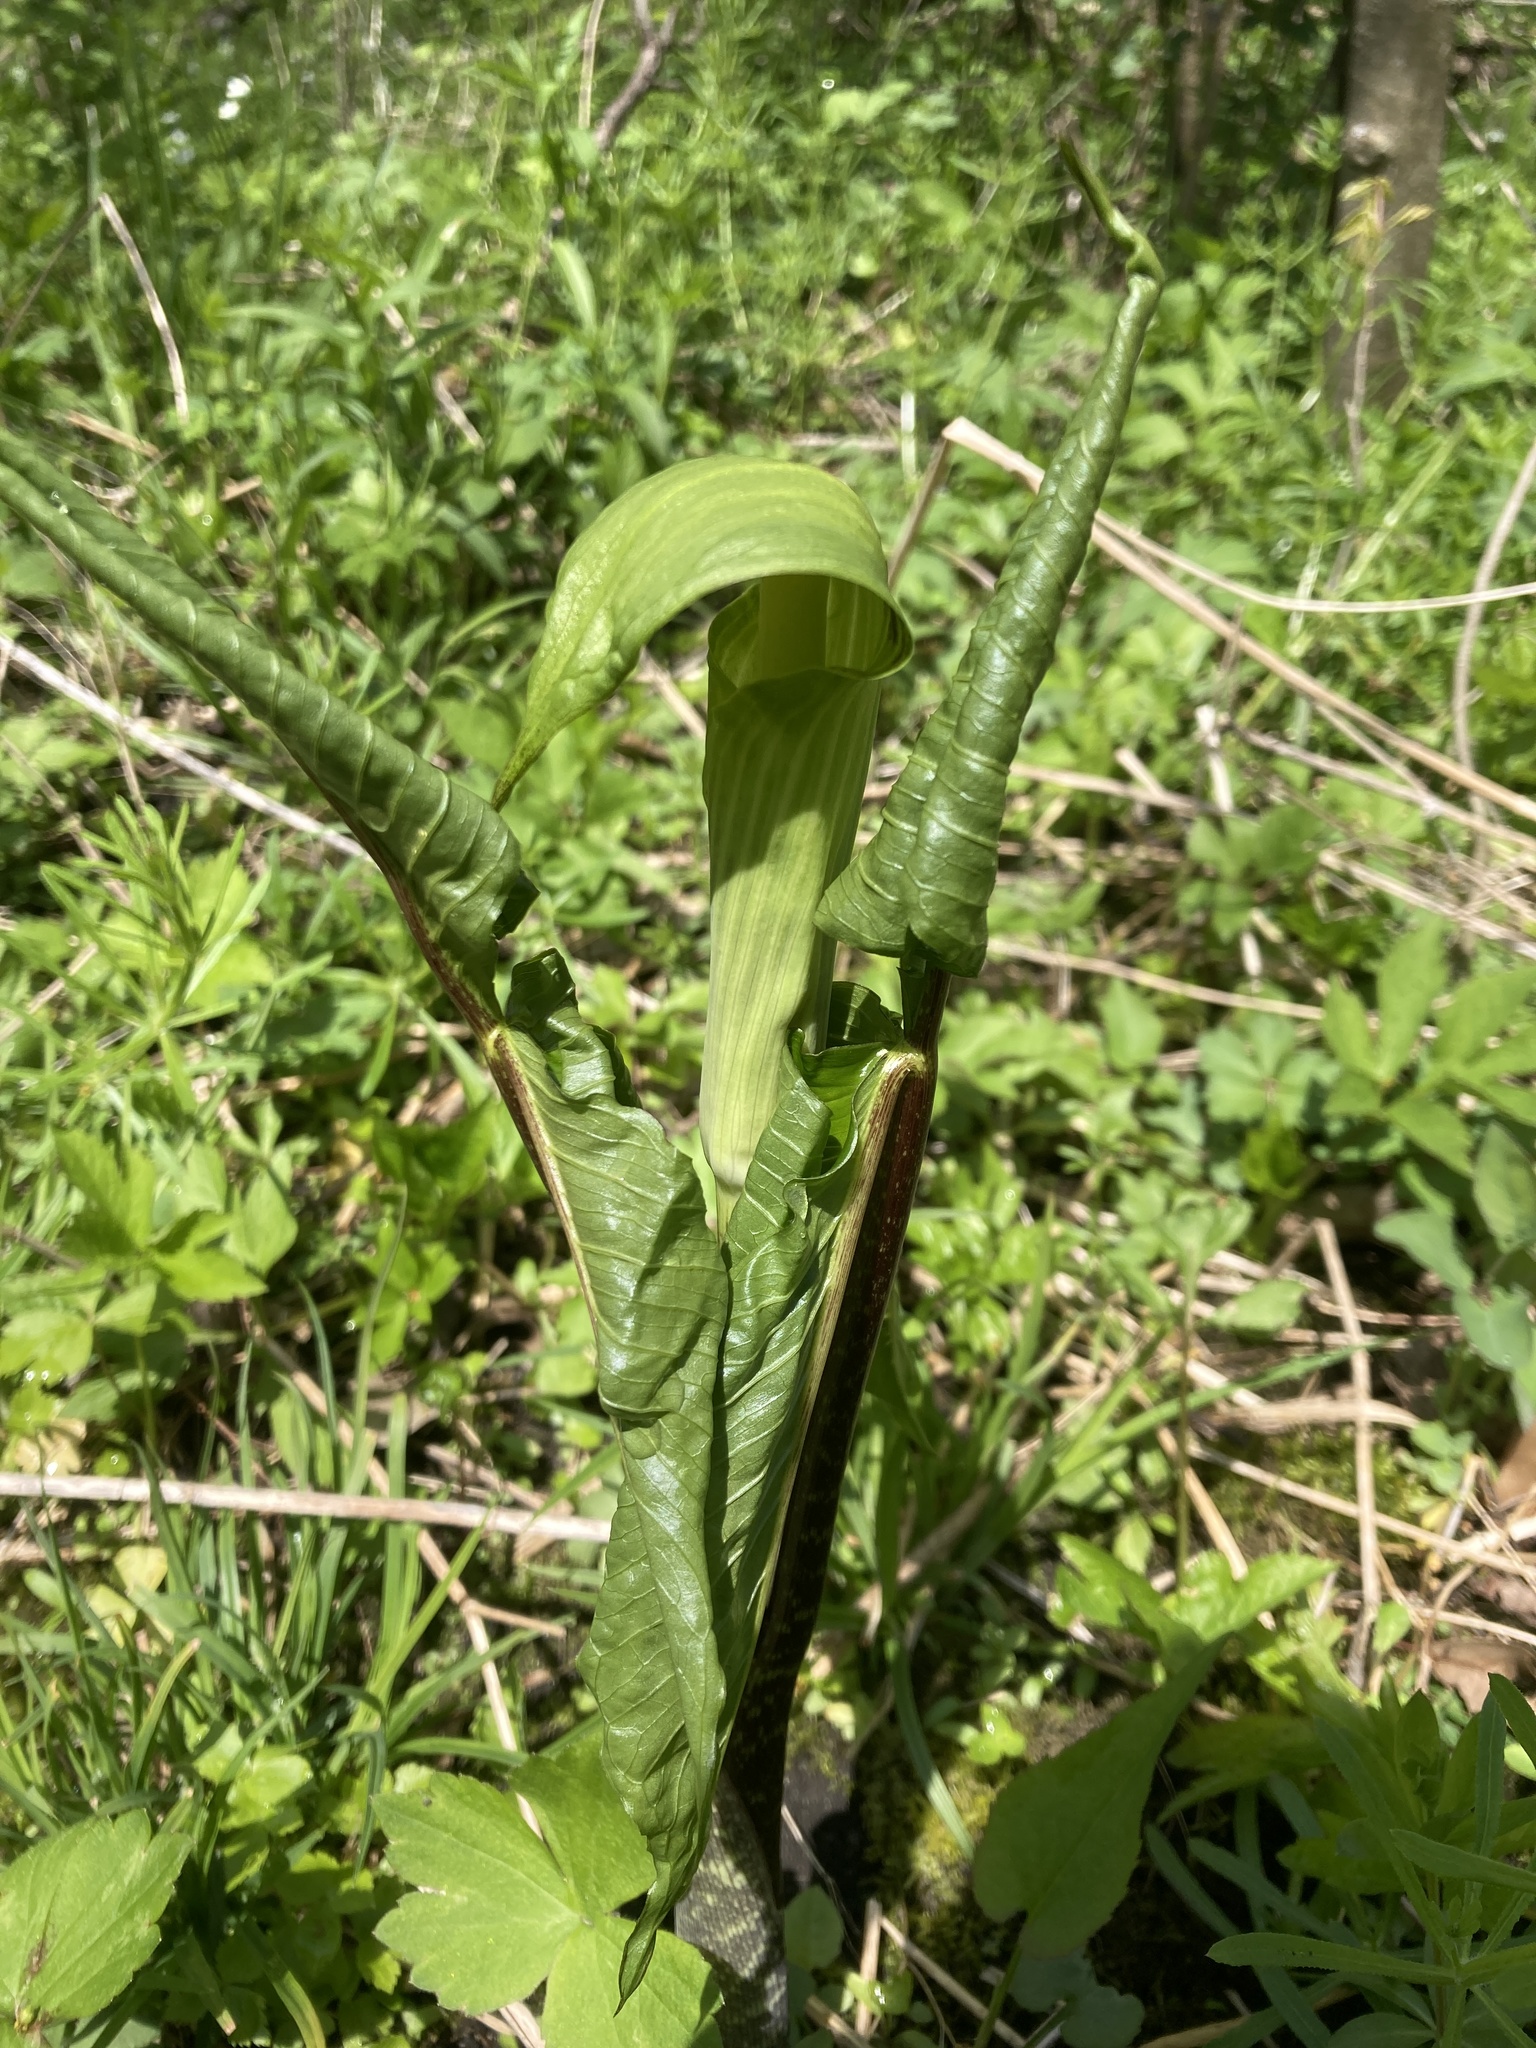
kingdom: Plantae
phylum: Tracheophyta
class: Liliopsida
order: Alismatales
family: Araceae
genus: Arisaema
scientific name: Arisaema triphyllum
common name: Jack-in-the-pulpit
